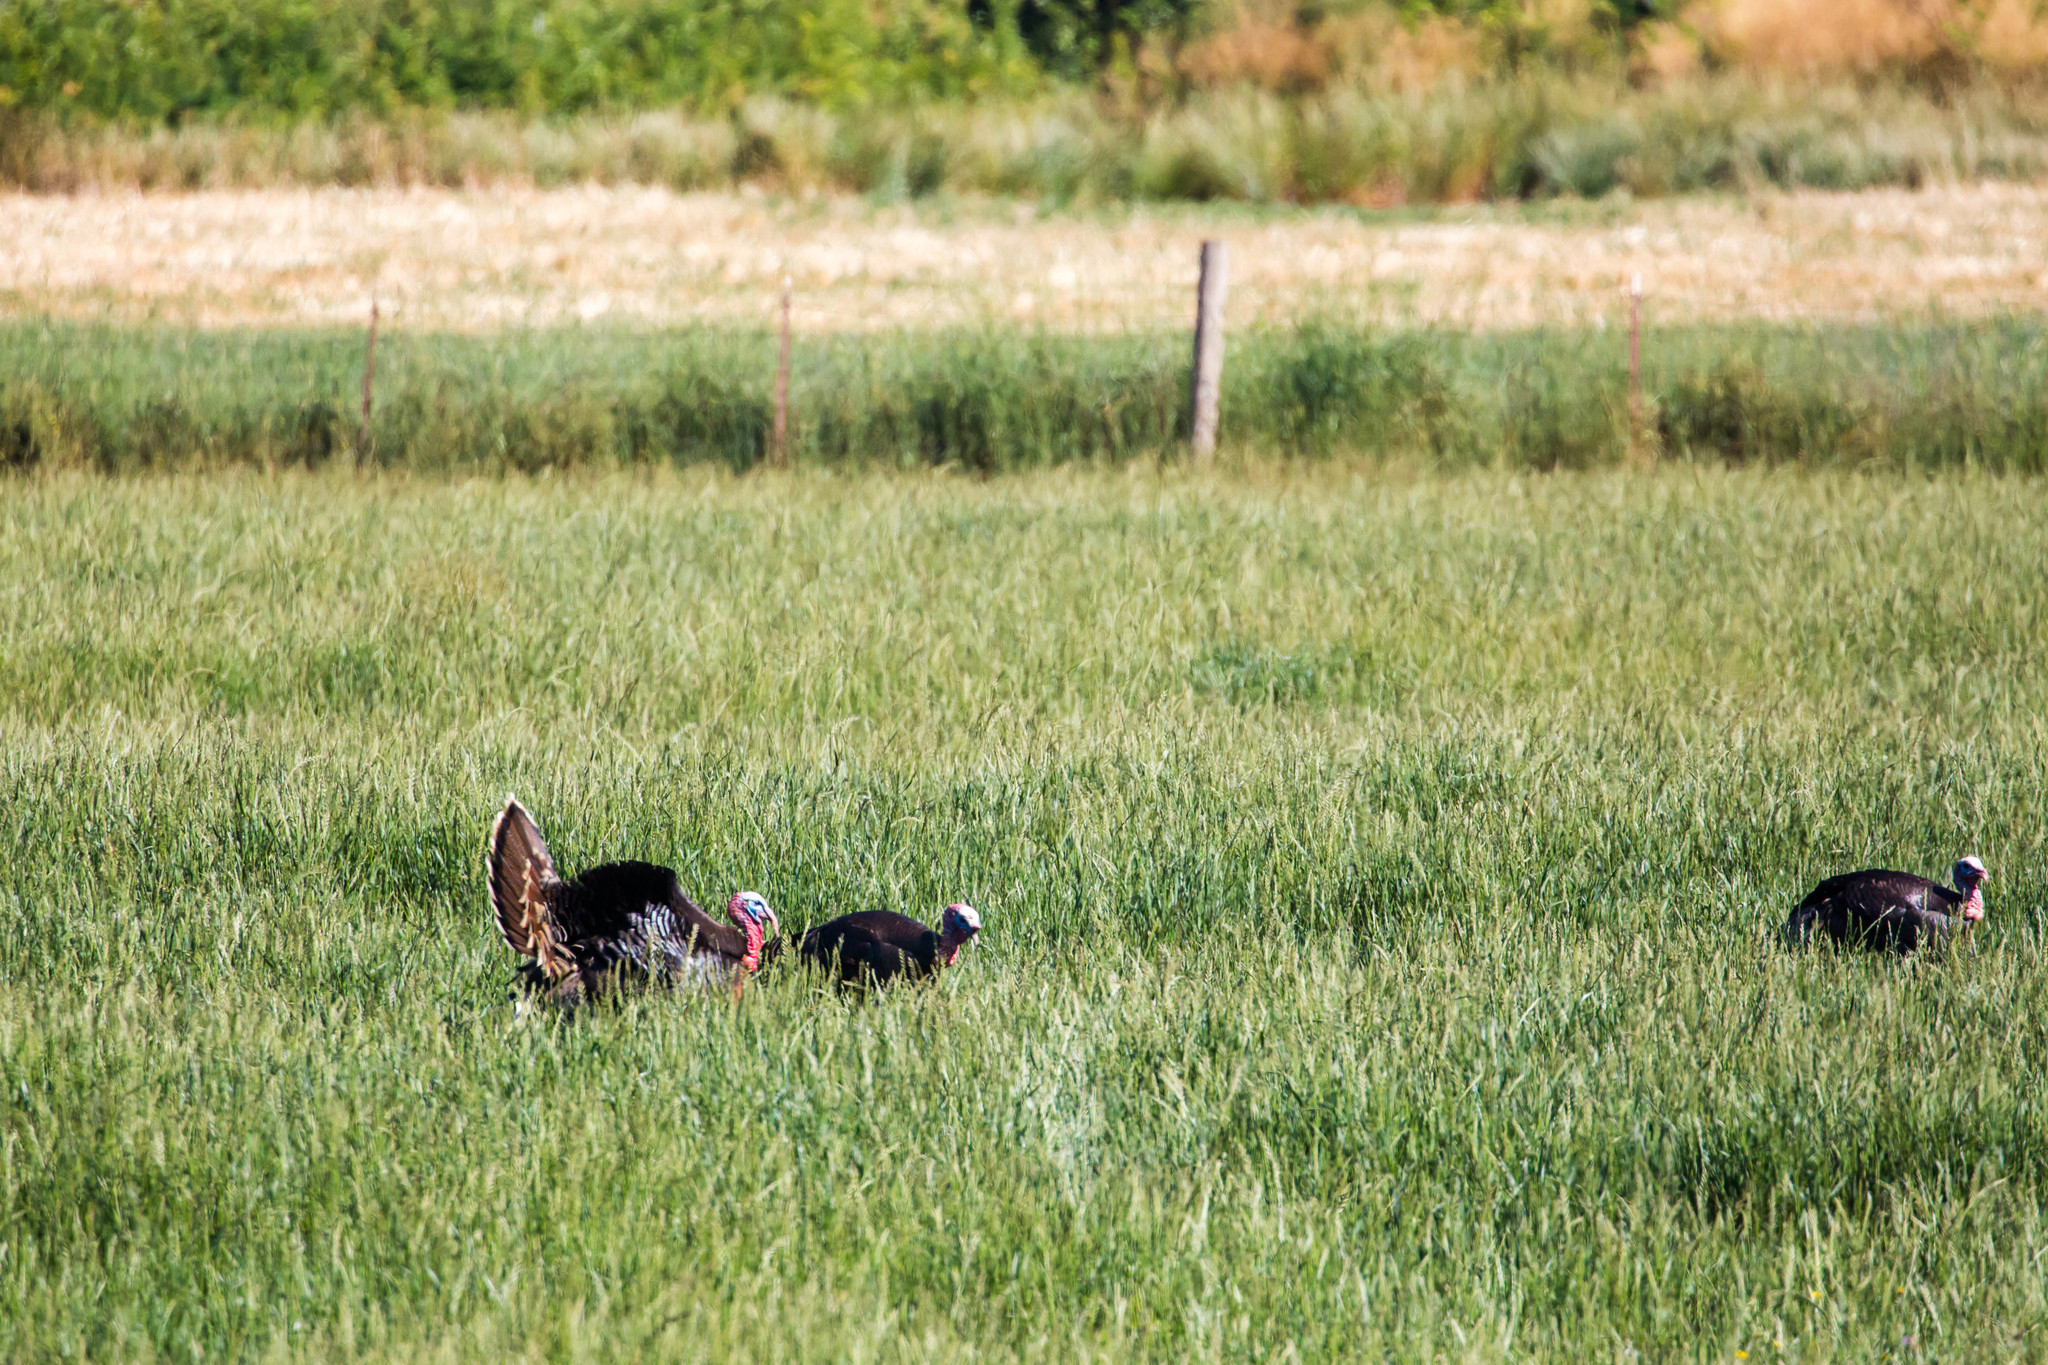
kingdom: Animalia
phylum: Chordata
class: Aves
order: Galliformes
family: Phasianidae
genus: Meleagris
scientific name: Meleagris gallopavo
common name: Wild turkey
